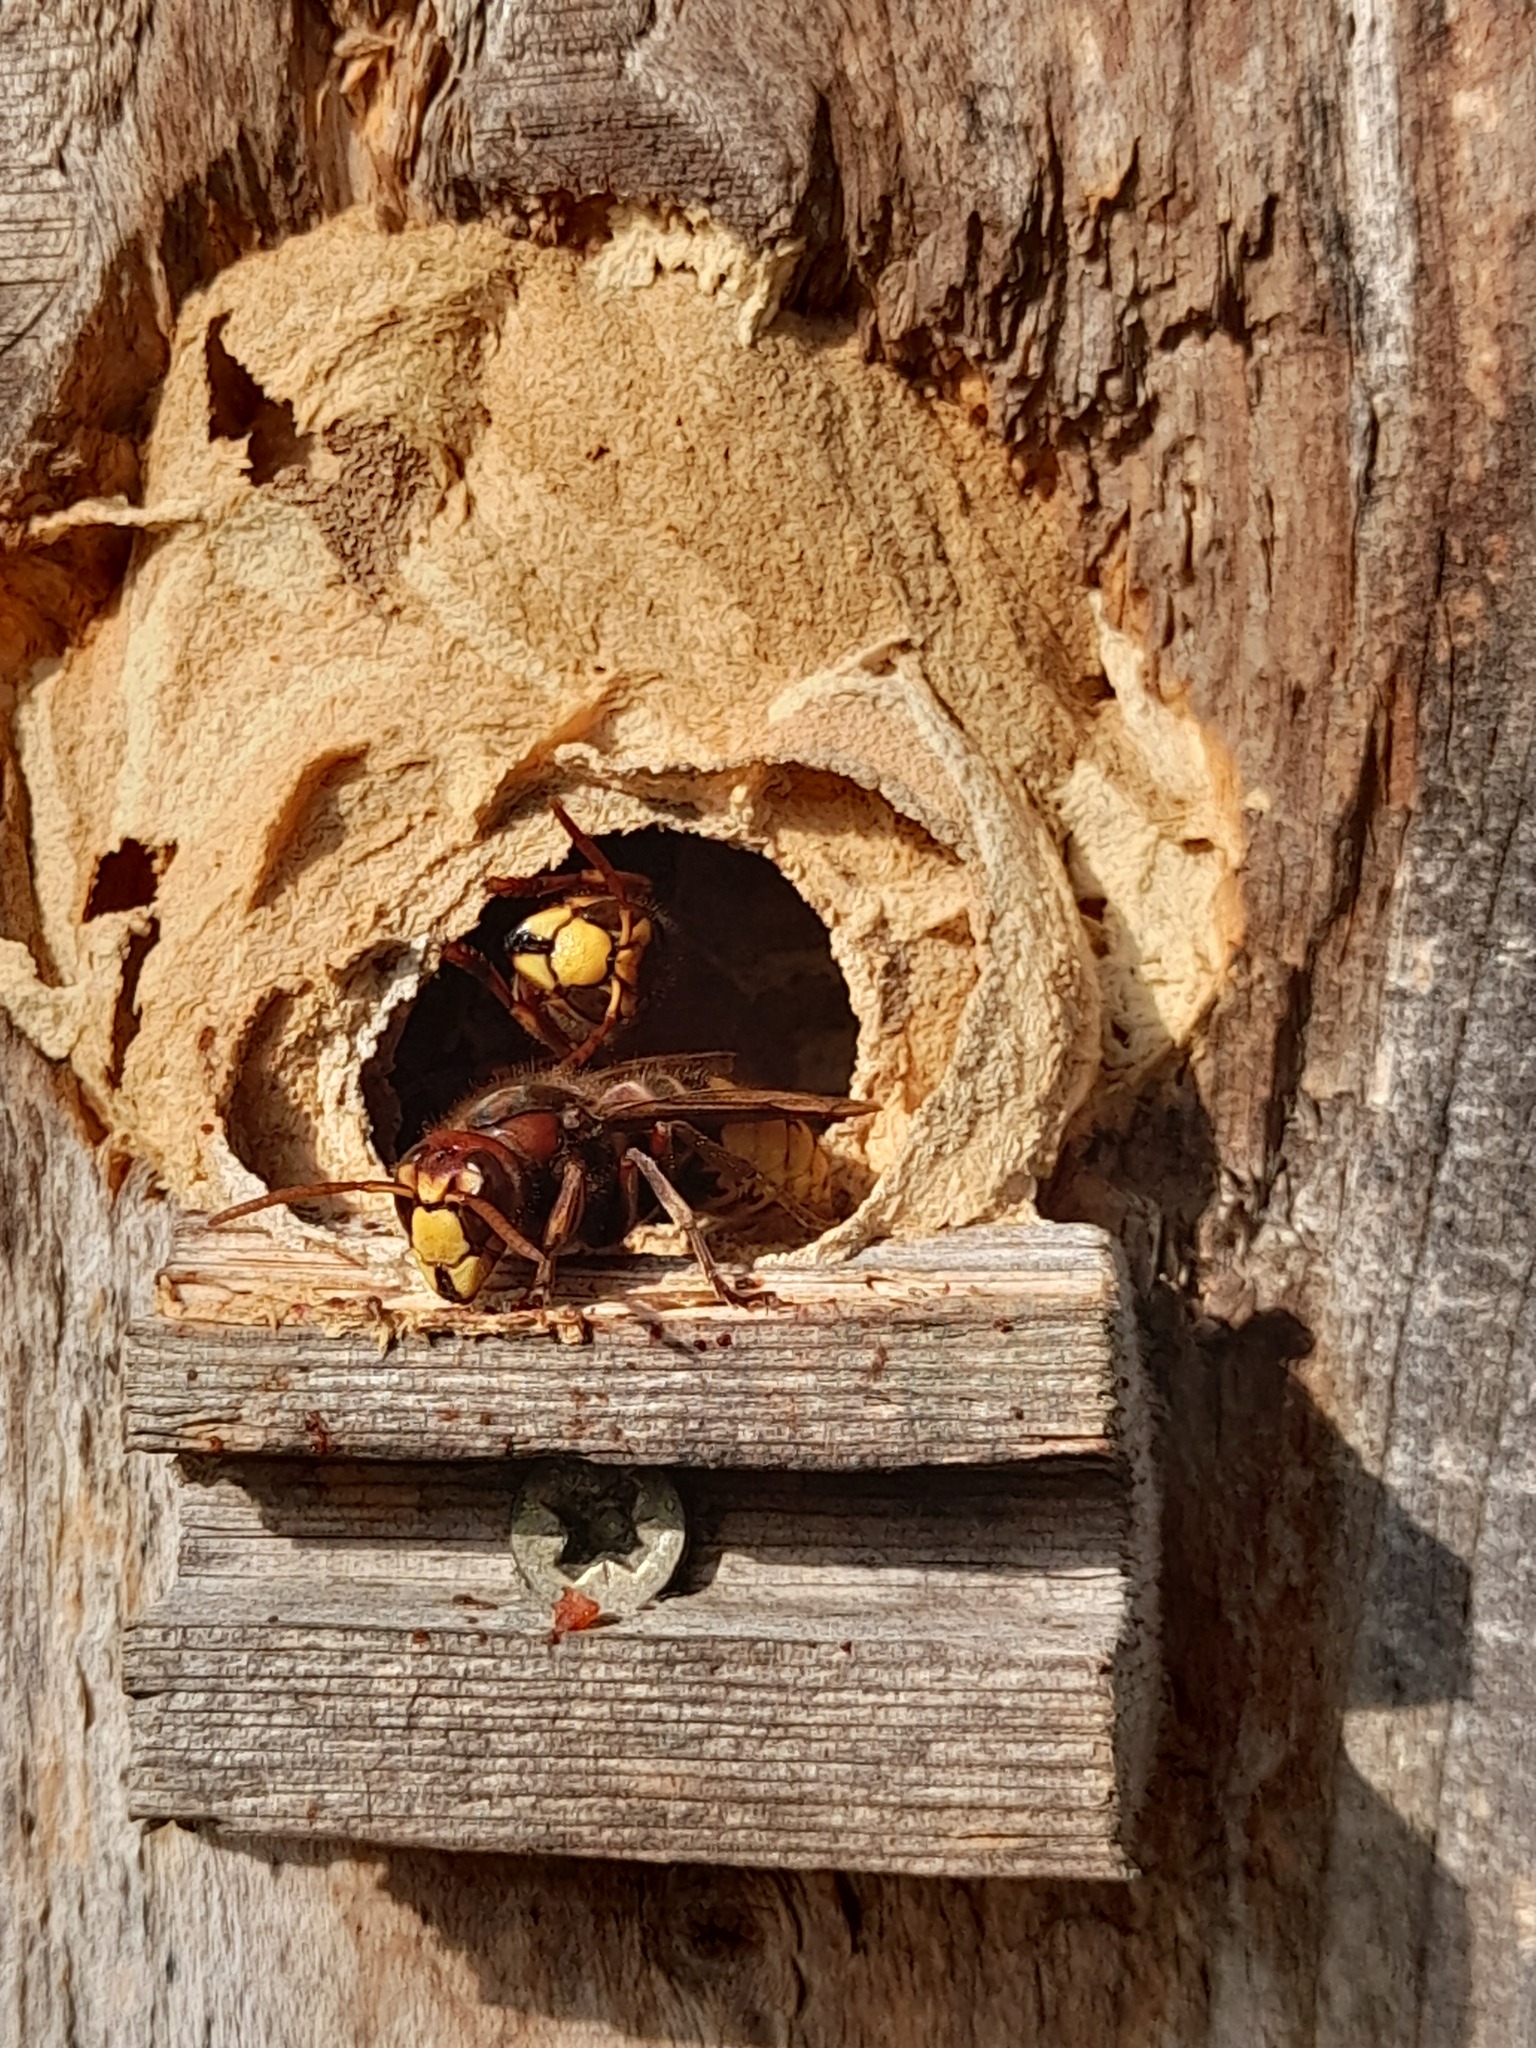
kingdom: Animalia
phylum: Arthropoda
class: Insecta
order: Hymenoptera
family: Vespidae
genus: Vespa
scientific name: Vespa crabro
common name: Hornet
